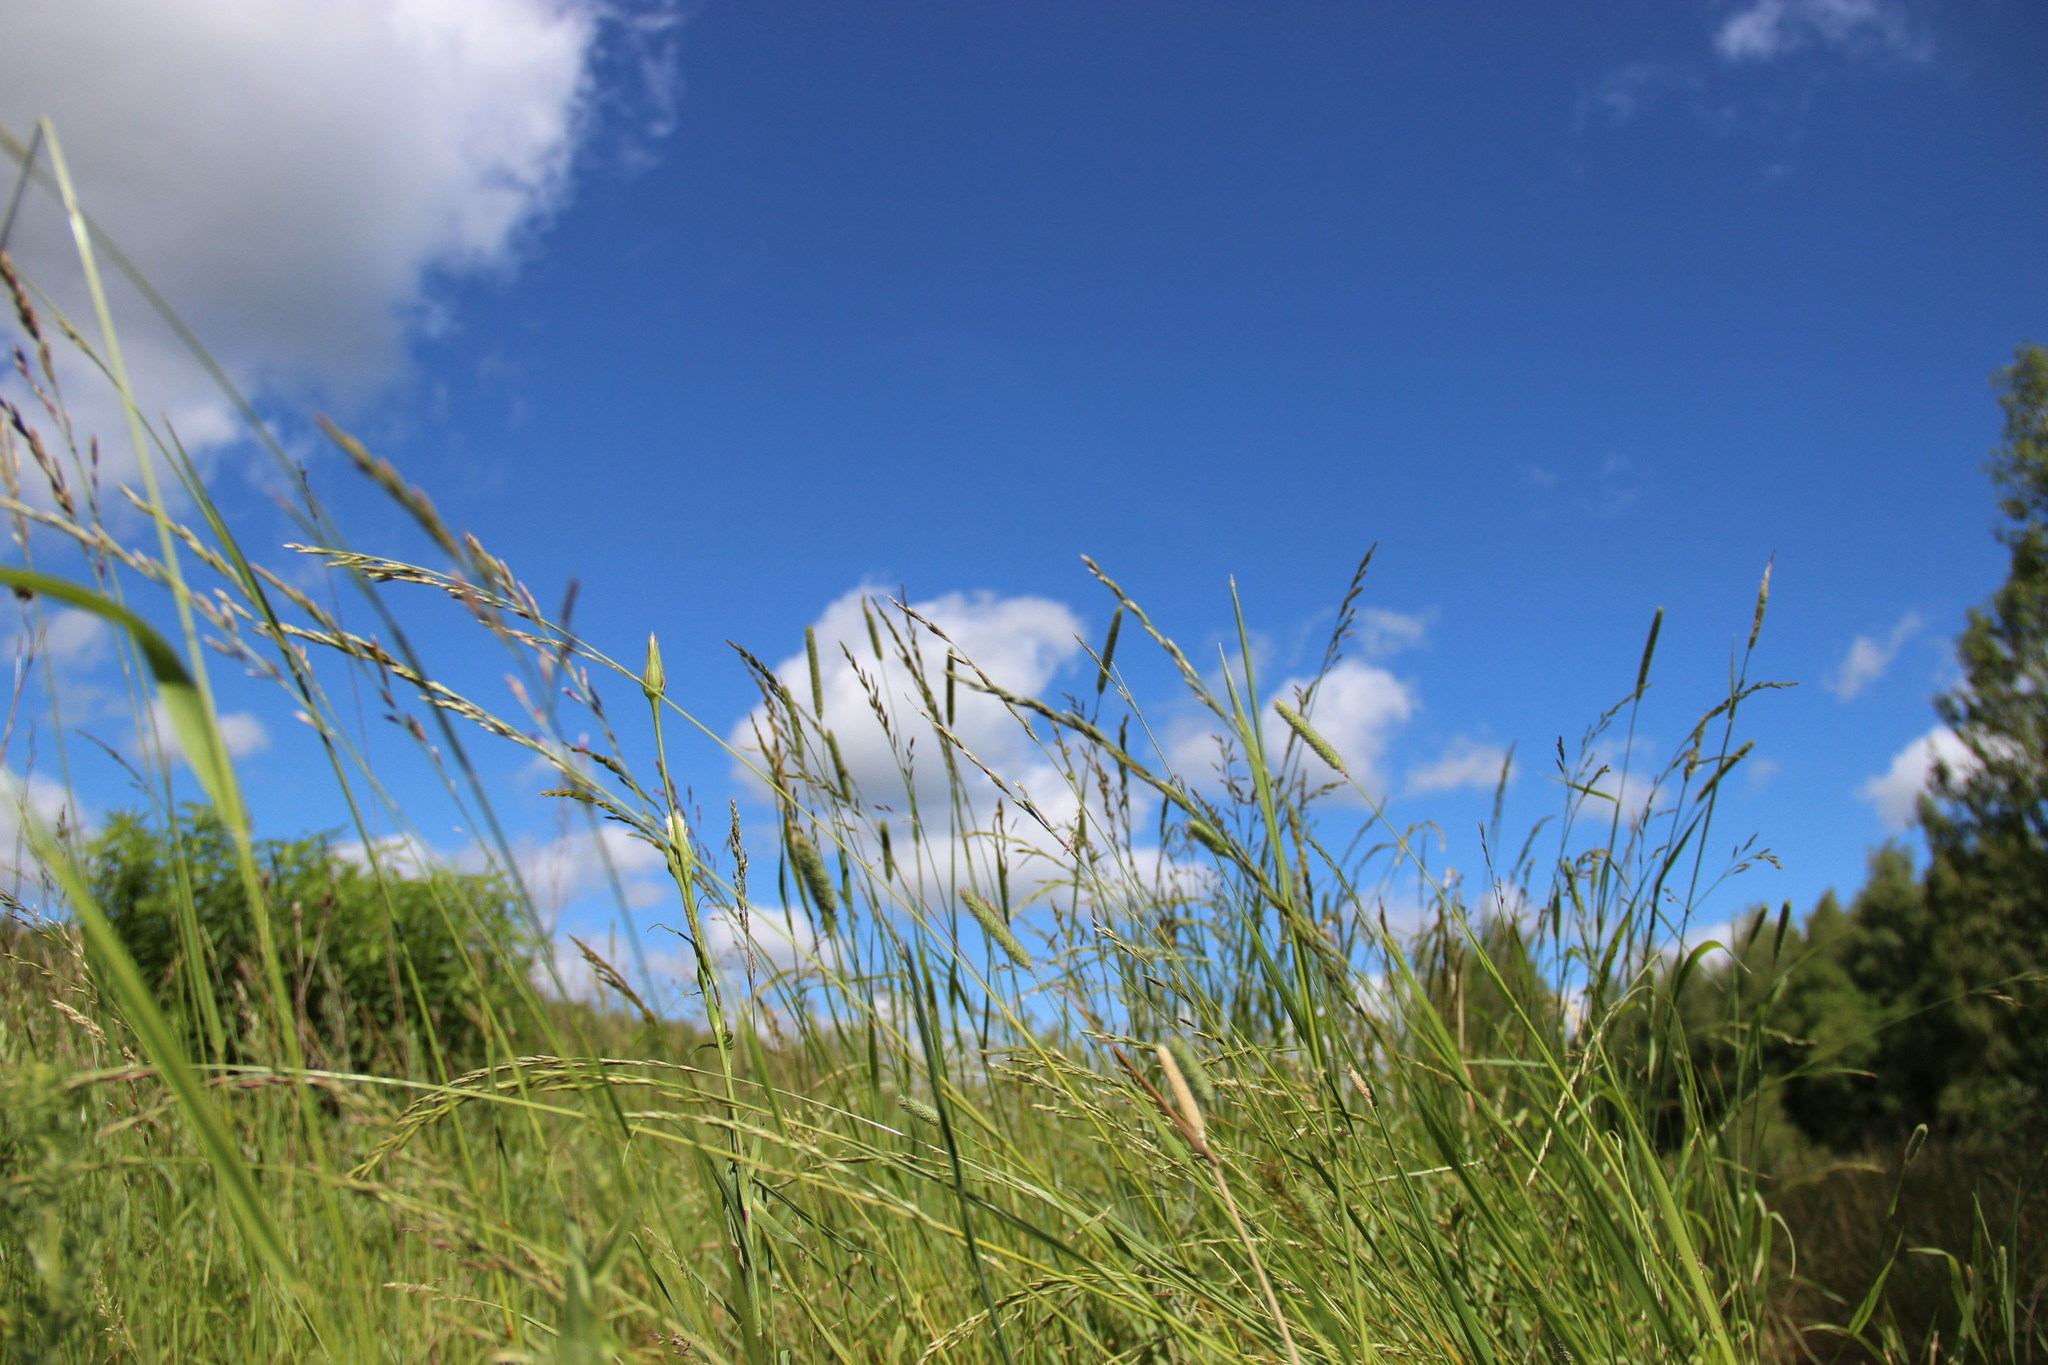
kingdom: Plantae
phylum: Tracheophyta
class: Liliopsida
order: Poales
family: Poaceae
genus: Lolium
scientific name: Lolium pratense
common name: Dover grass
